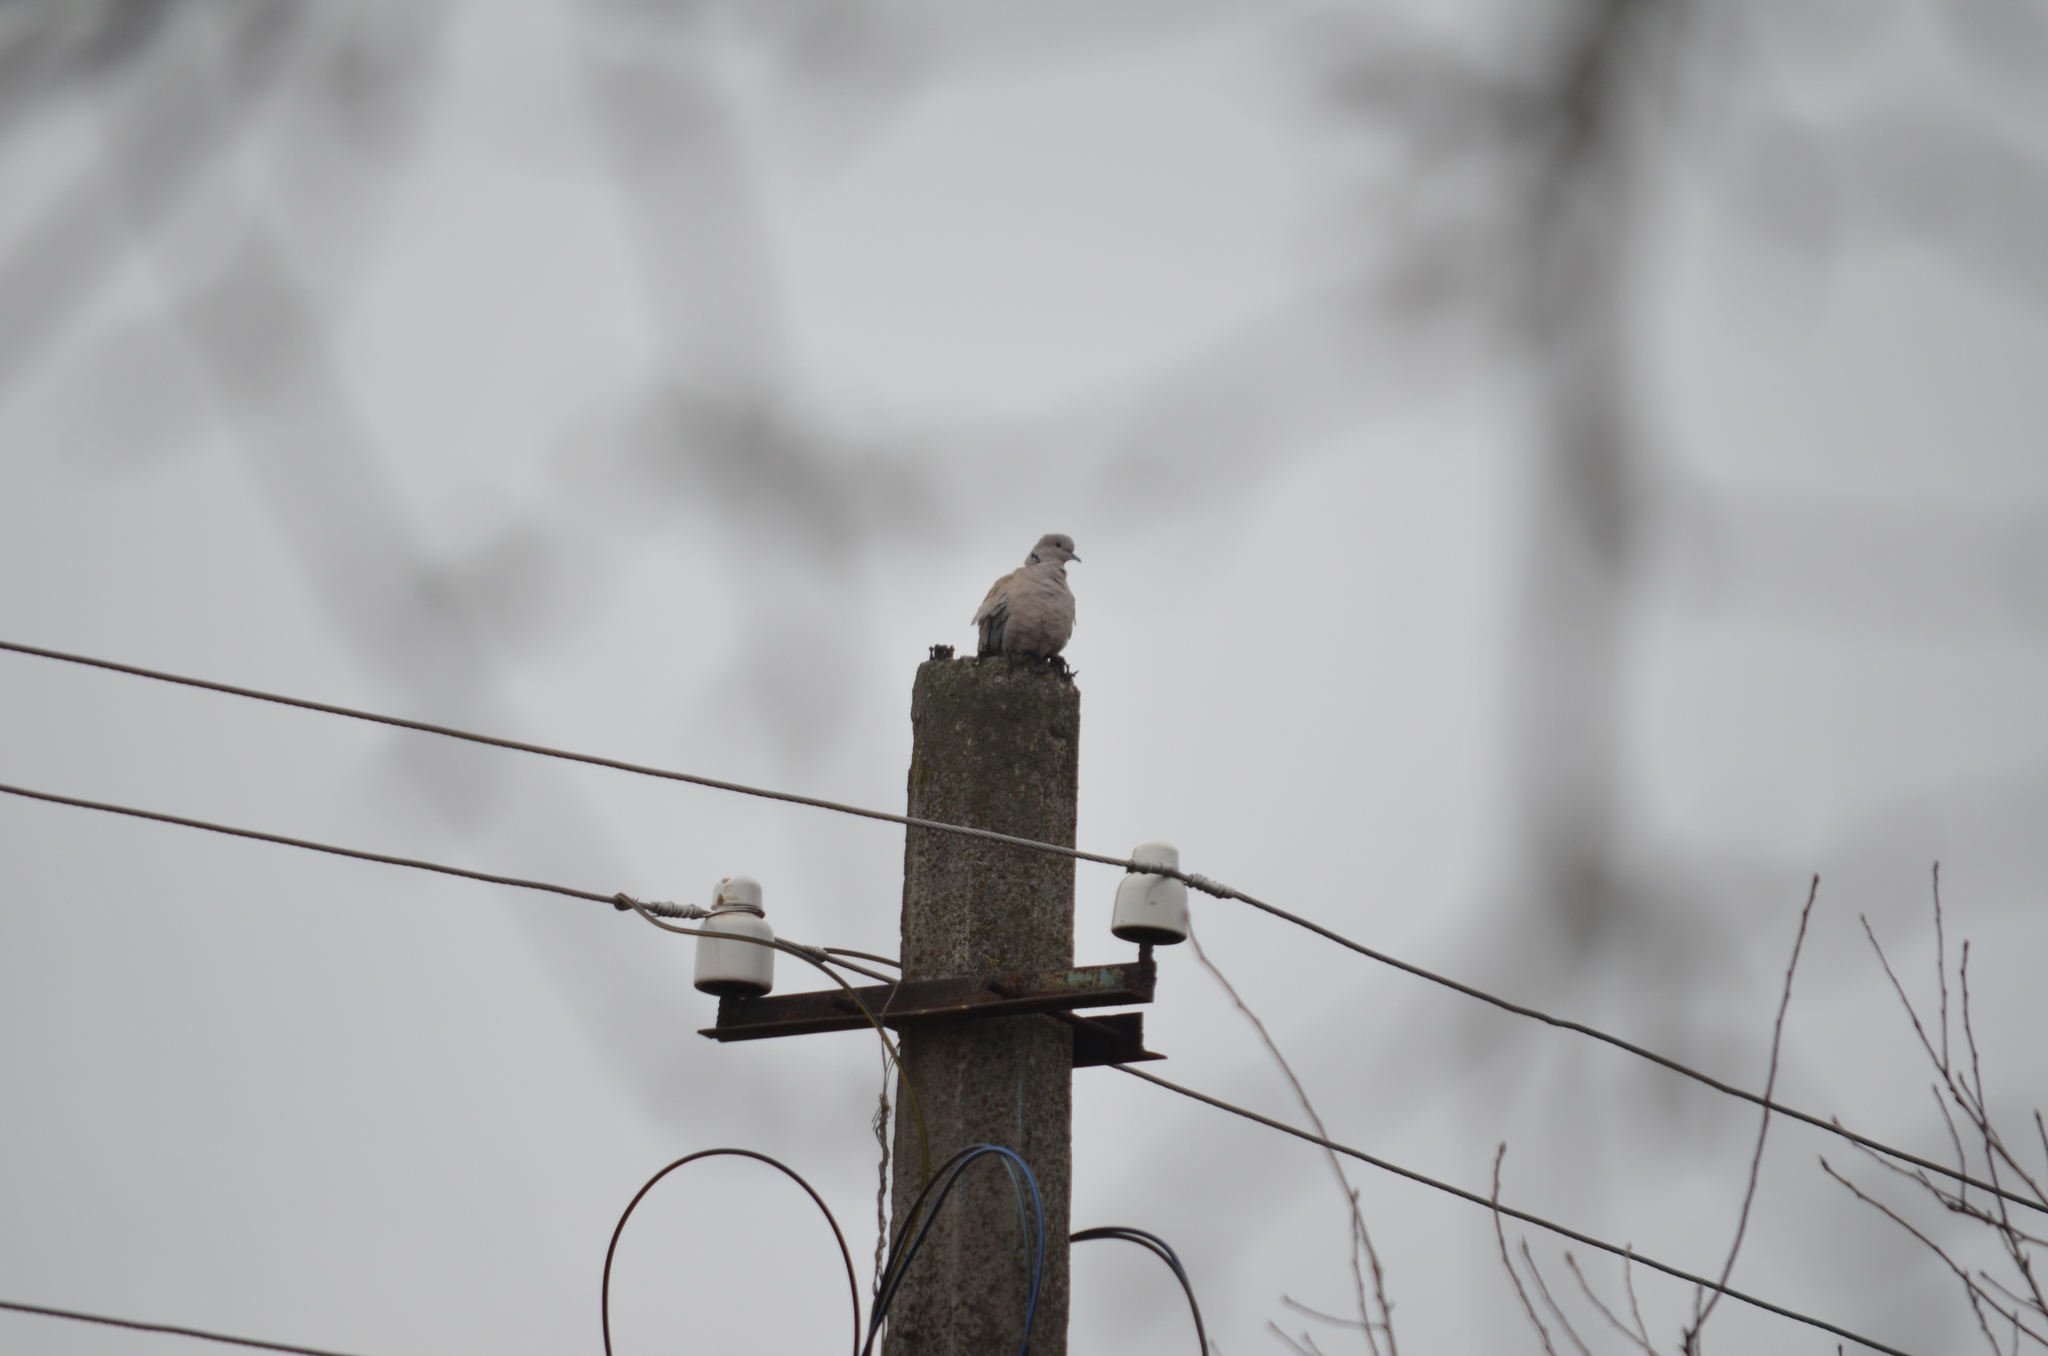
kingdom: Animalia
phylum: Chordata
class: Aves
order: Columbiformes
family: Columbidae
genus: Streptopelia
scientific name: Streptopelia decaocto
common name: Eurasian collared dove
